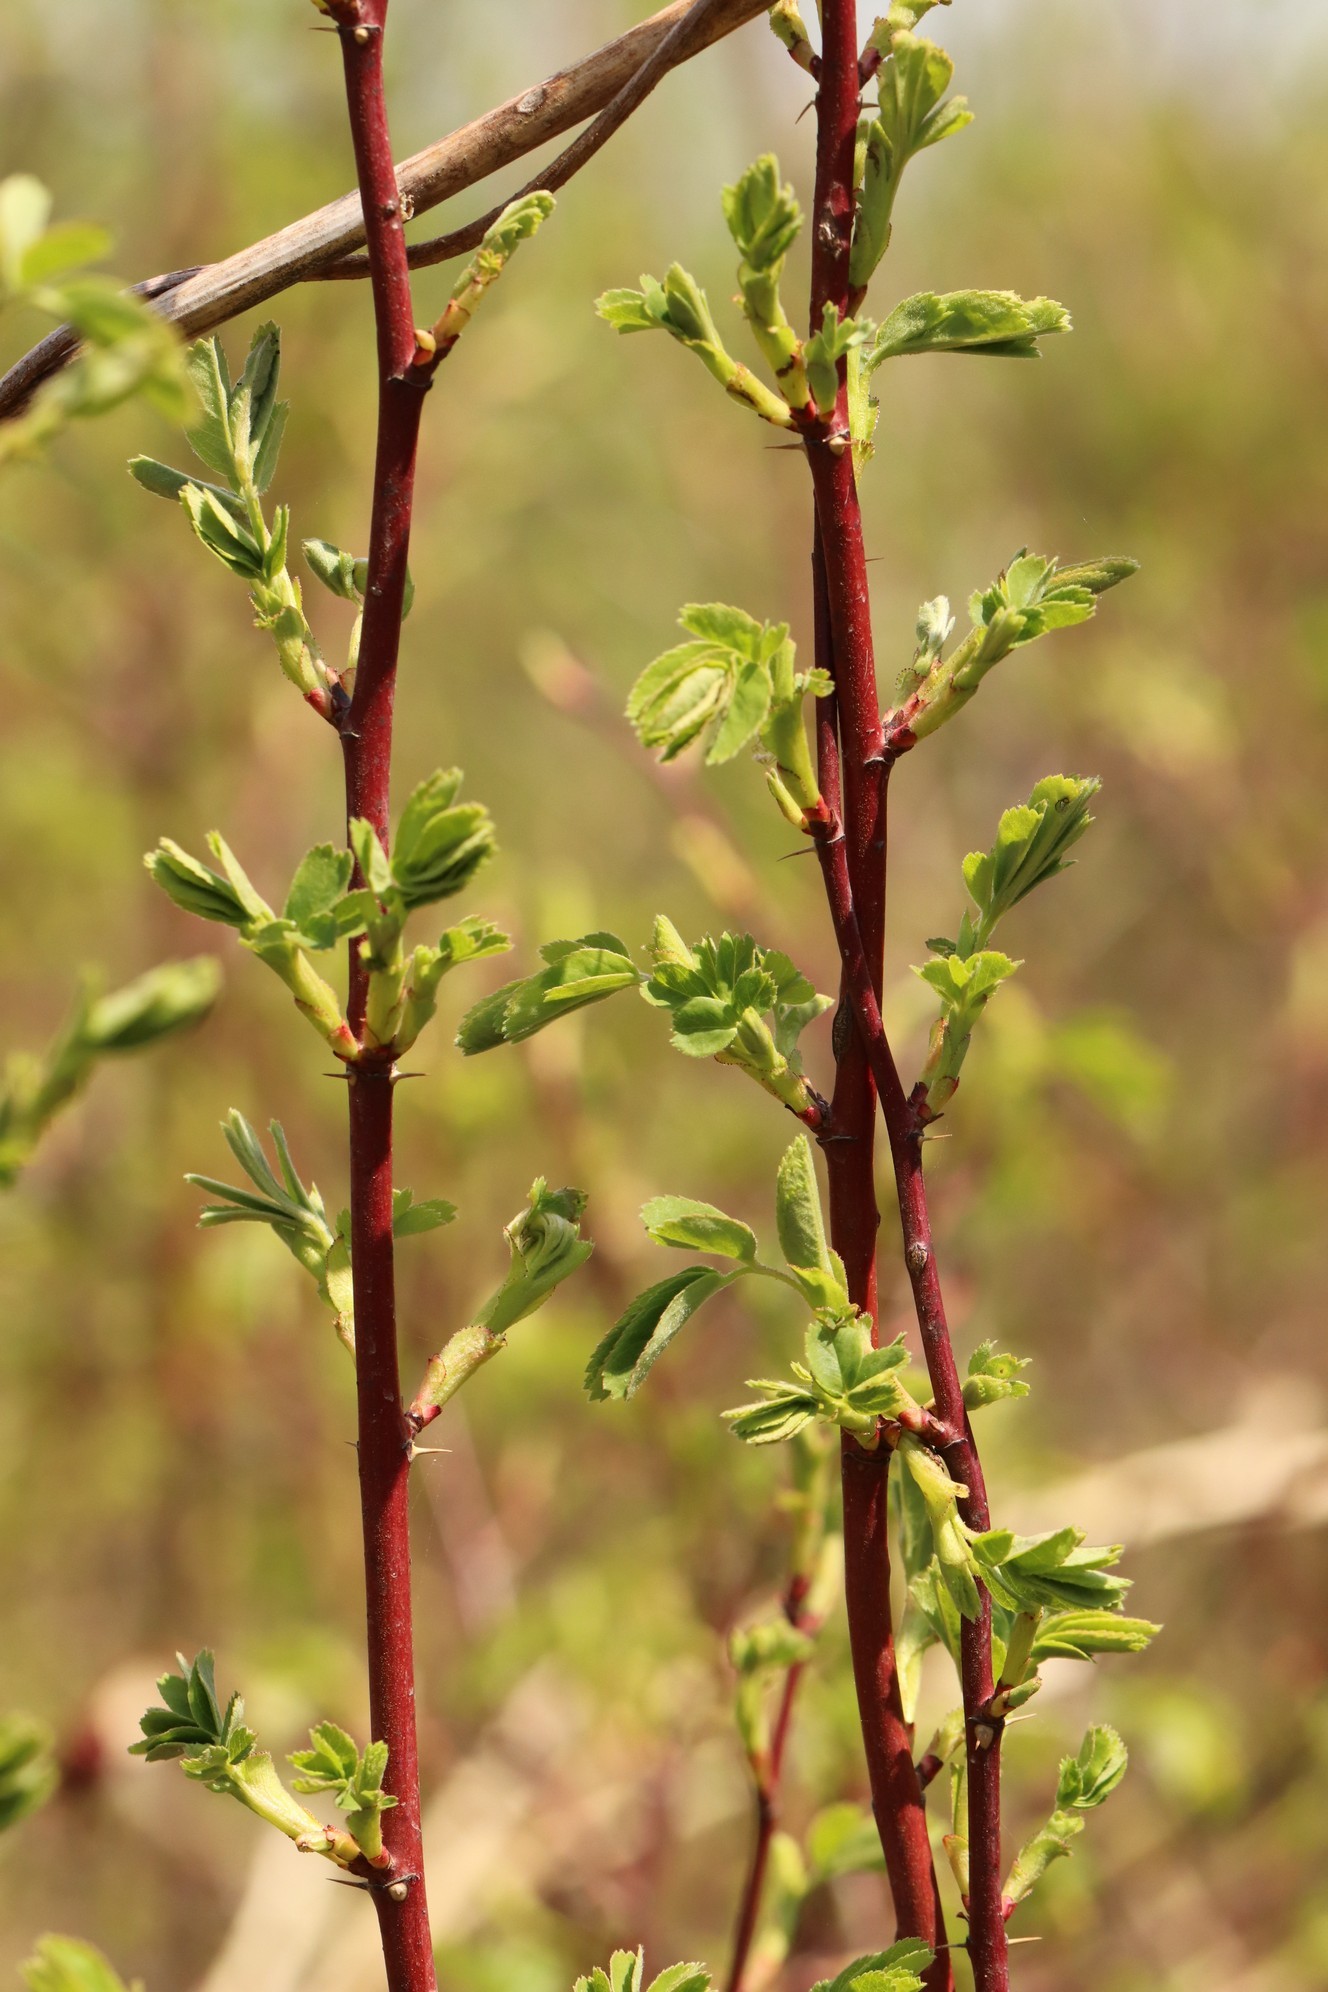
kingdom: Plantae
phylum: Tracheophyta
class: Magnoliopsida
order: Rosales
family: Rosaceae
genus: Rosa
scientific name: Rosa majalis
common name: Cinnamon rose
